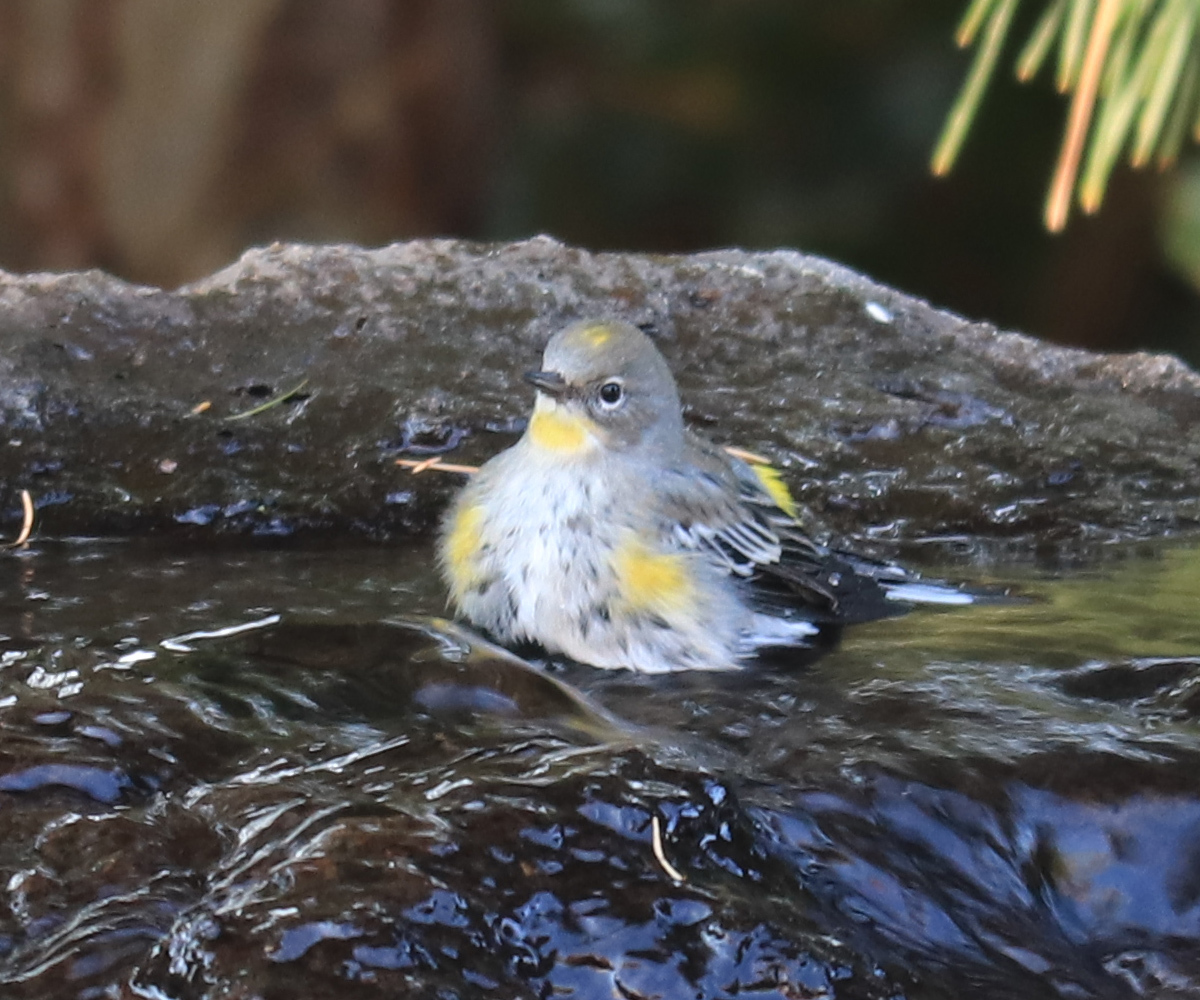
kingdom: Animalia
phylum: Chordata
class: Aves
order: Passeriformes
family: Parulidae
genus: Setophaga
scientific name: Setophaga auduboni
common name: Audubon's warbler
